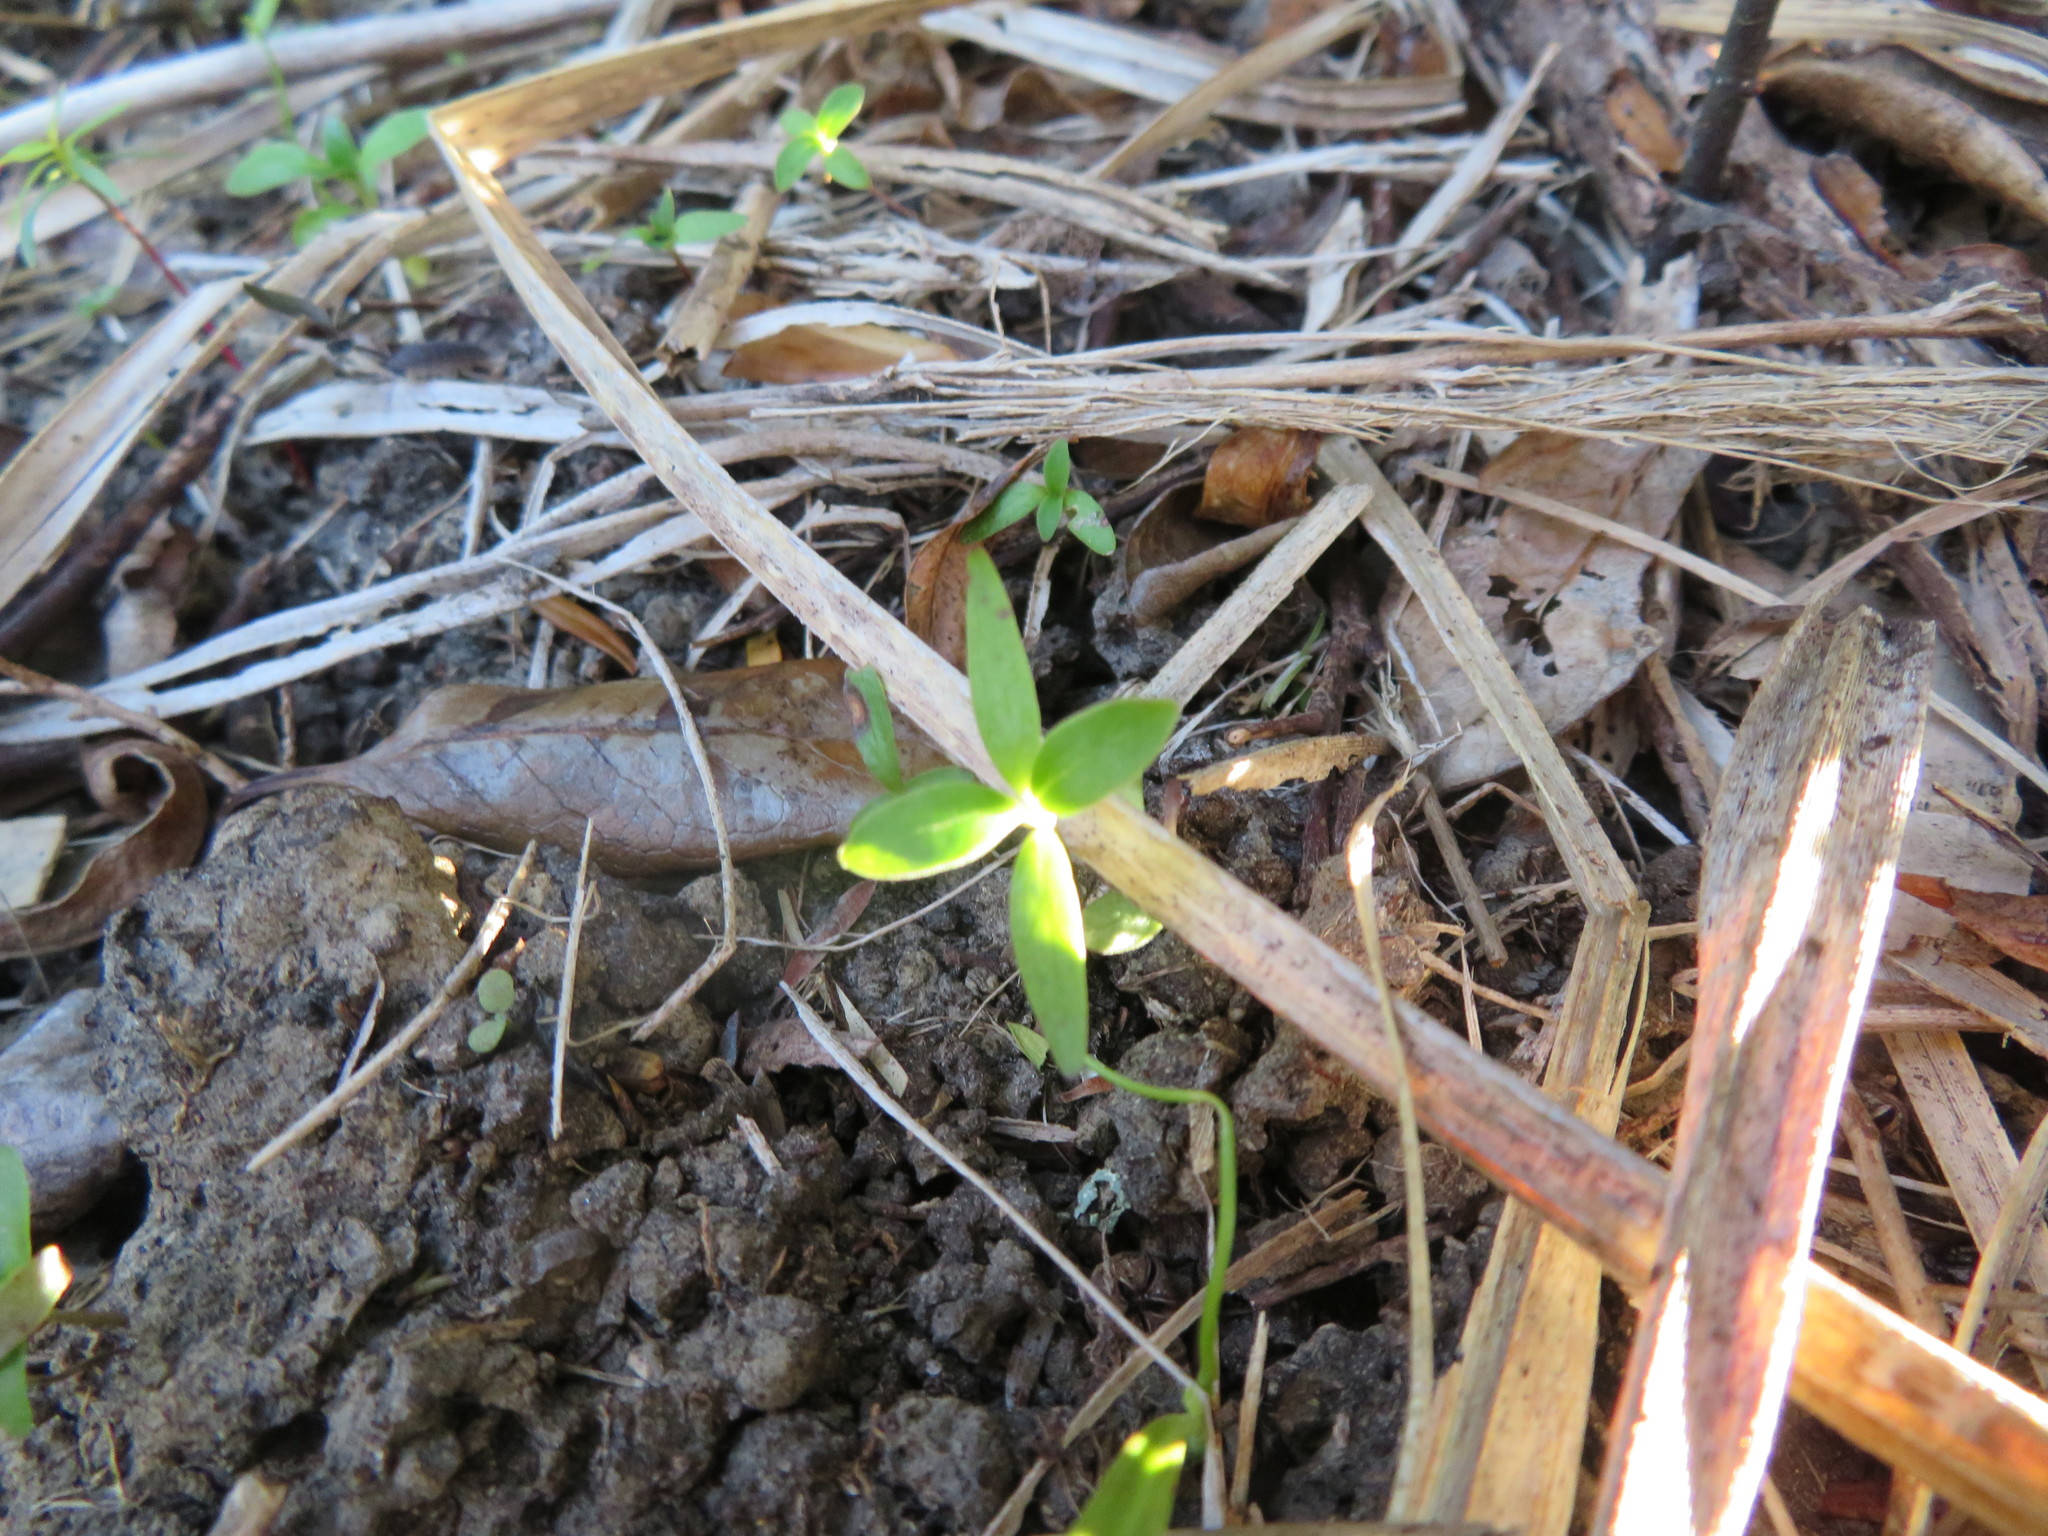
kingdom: Plantae
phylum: Tracheophyta
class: Magnoliopsida
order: Gentianales
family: Rubiaceae
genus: Coprosma
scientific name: Coprosma robusta
